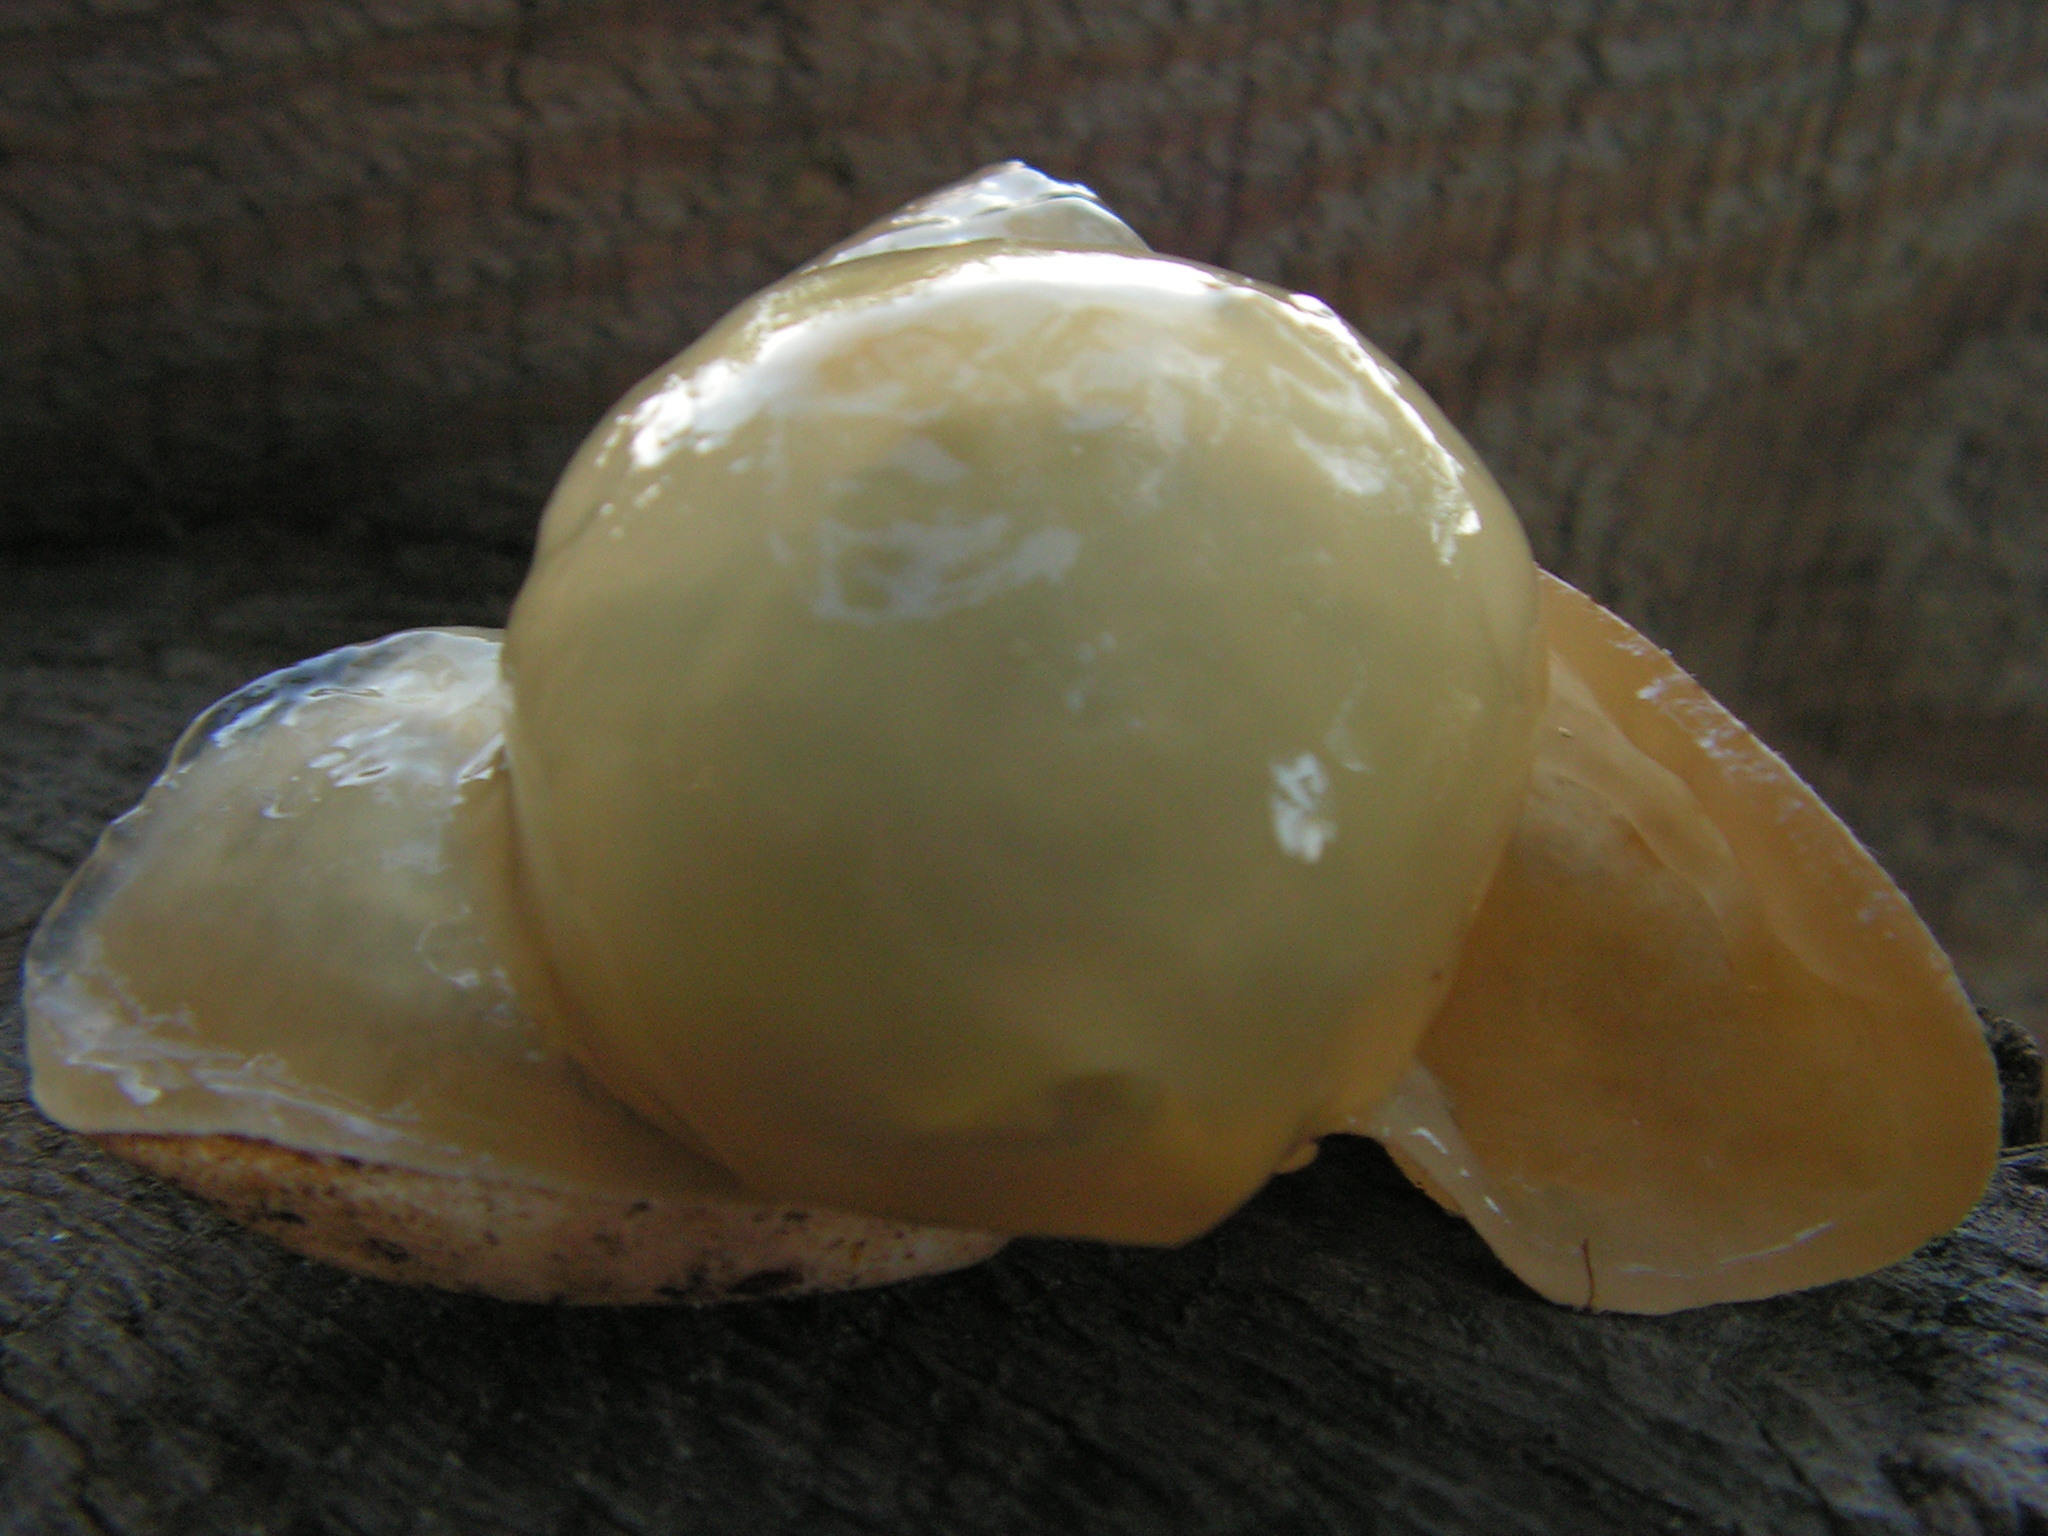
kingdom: Fungi
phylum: Basidiomycota
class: Agaricomycetes
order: Phallales
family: Phallaceae
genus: Phallus
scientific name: Phallus impudicus
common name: Common stinkhorn
